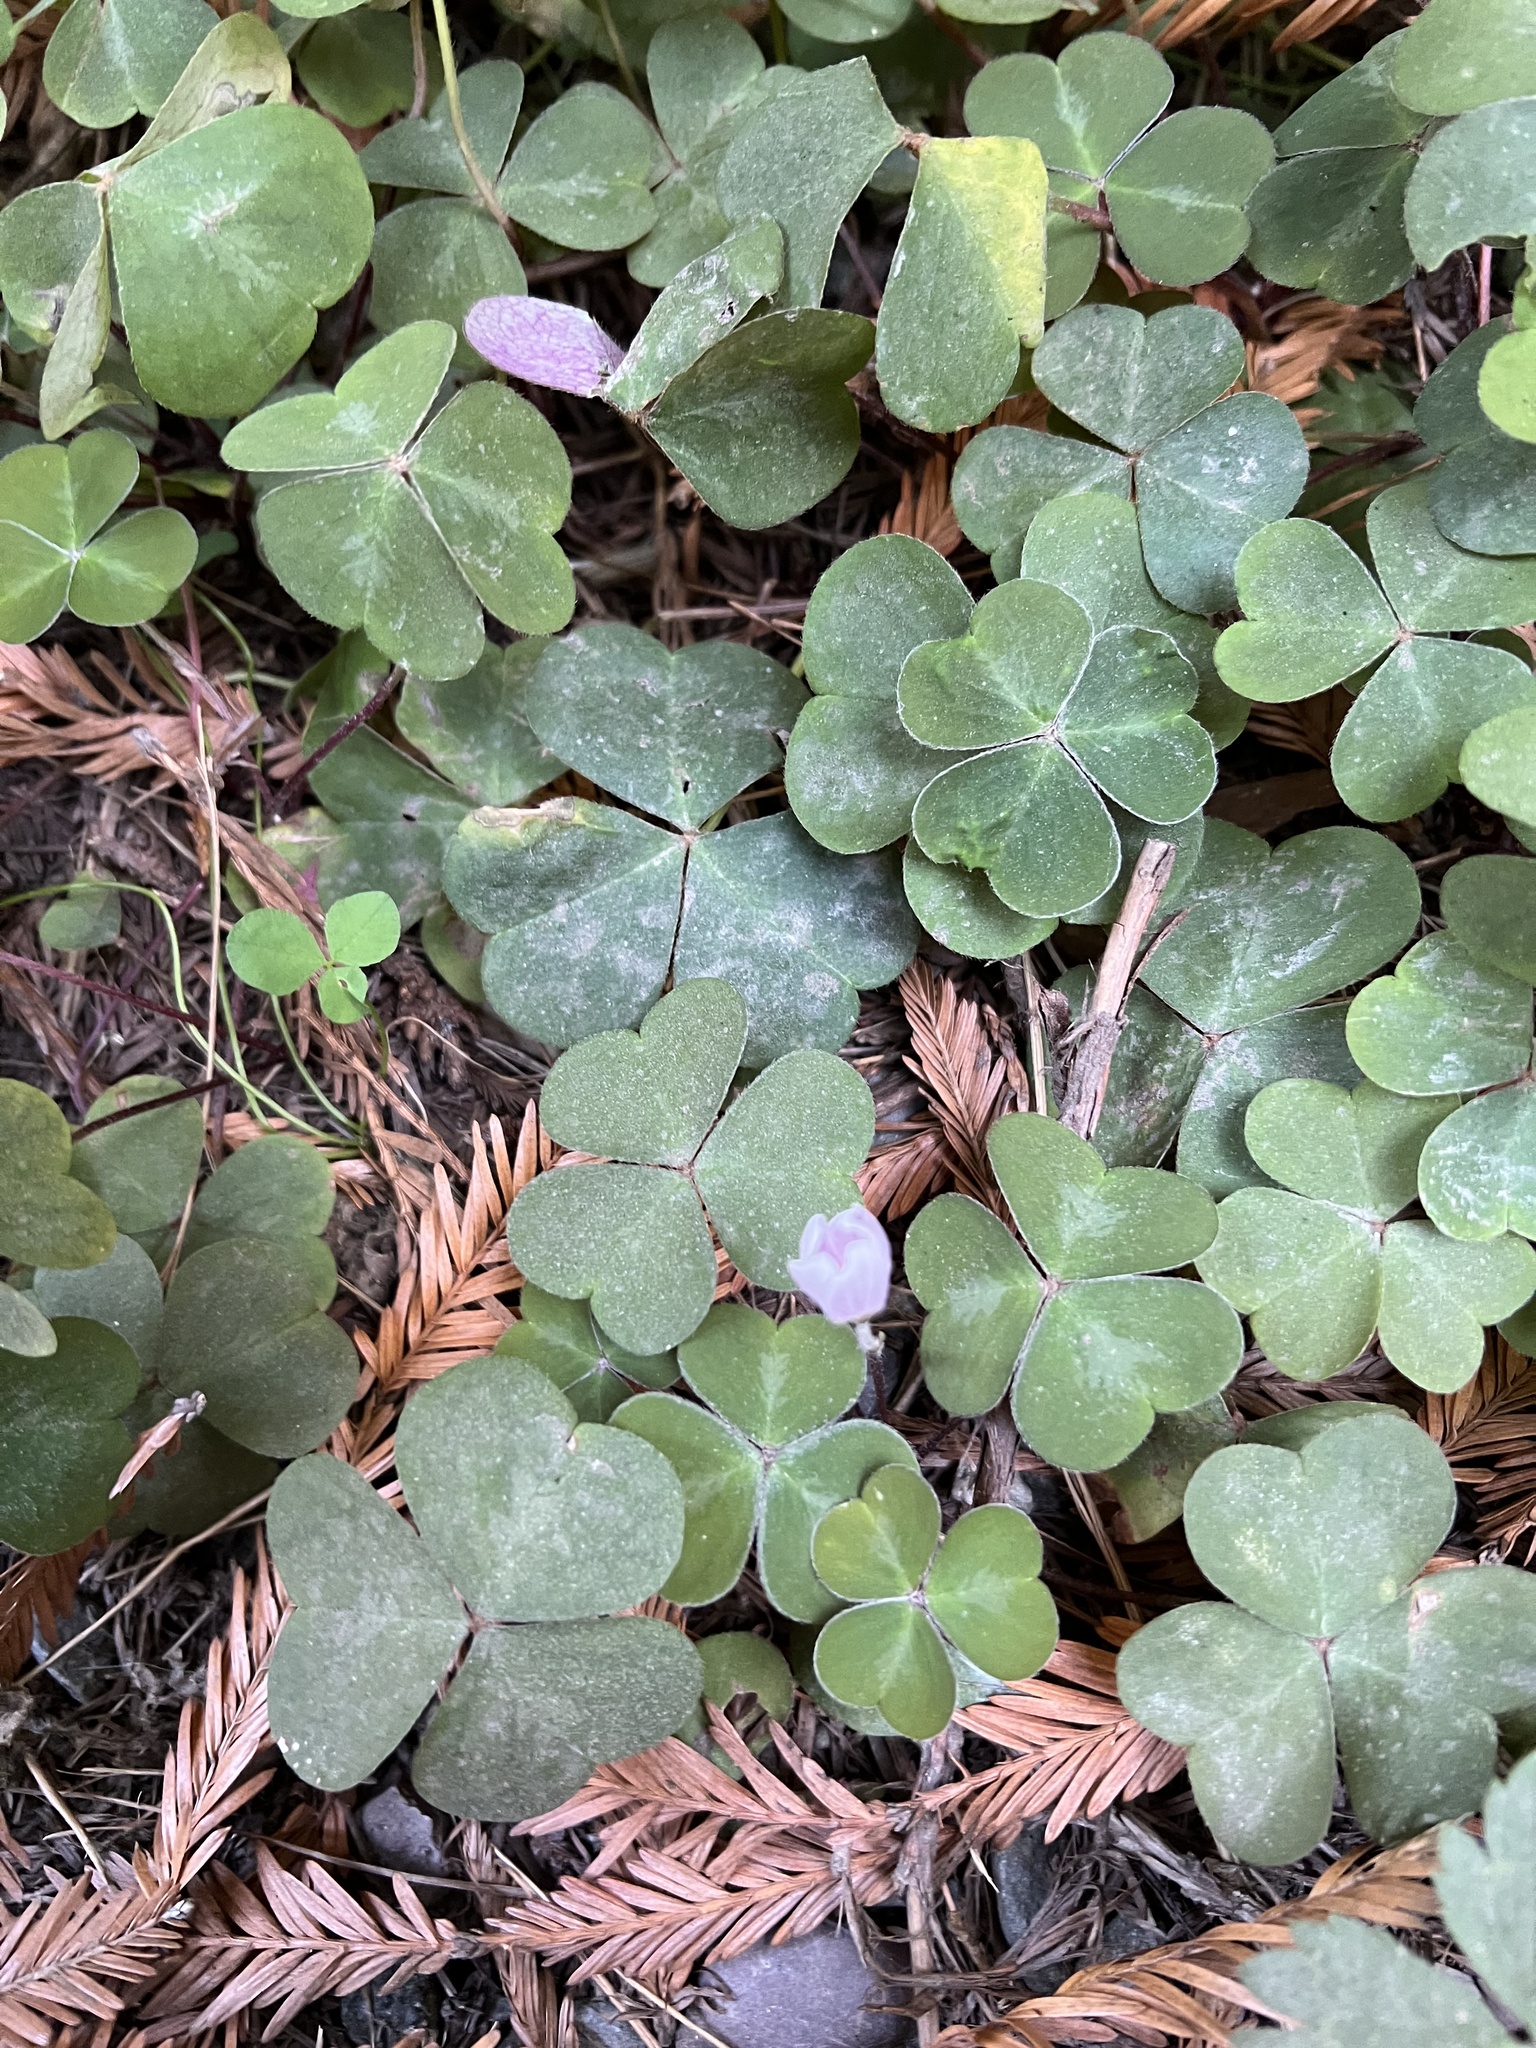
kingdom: Plantae
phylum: Tracheophyta
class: Magnoliopsida
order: Oxalidales
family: Oxalidaceae
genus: Oxalis
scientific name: Oxalis oregana
